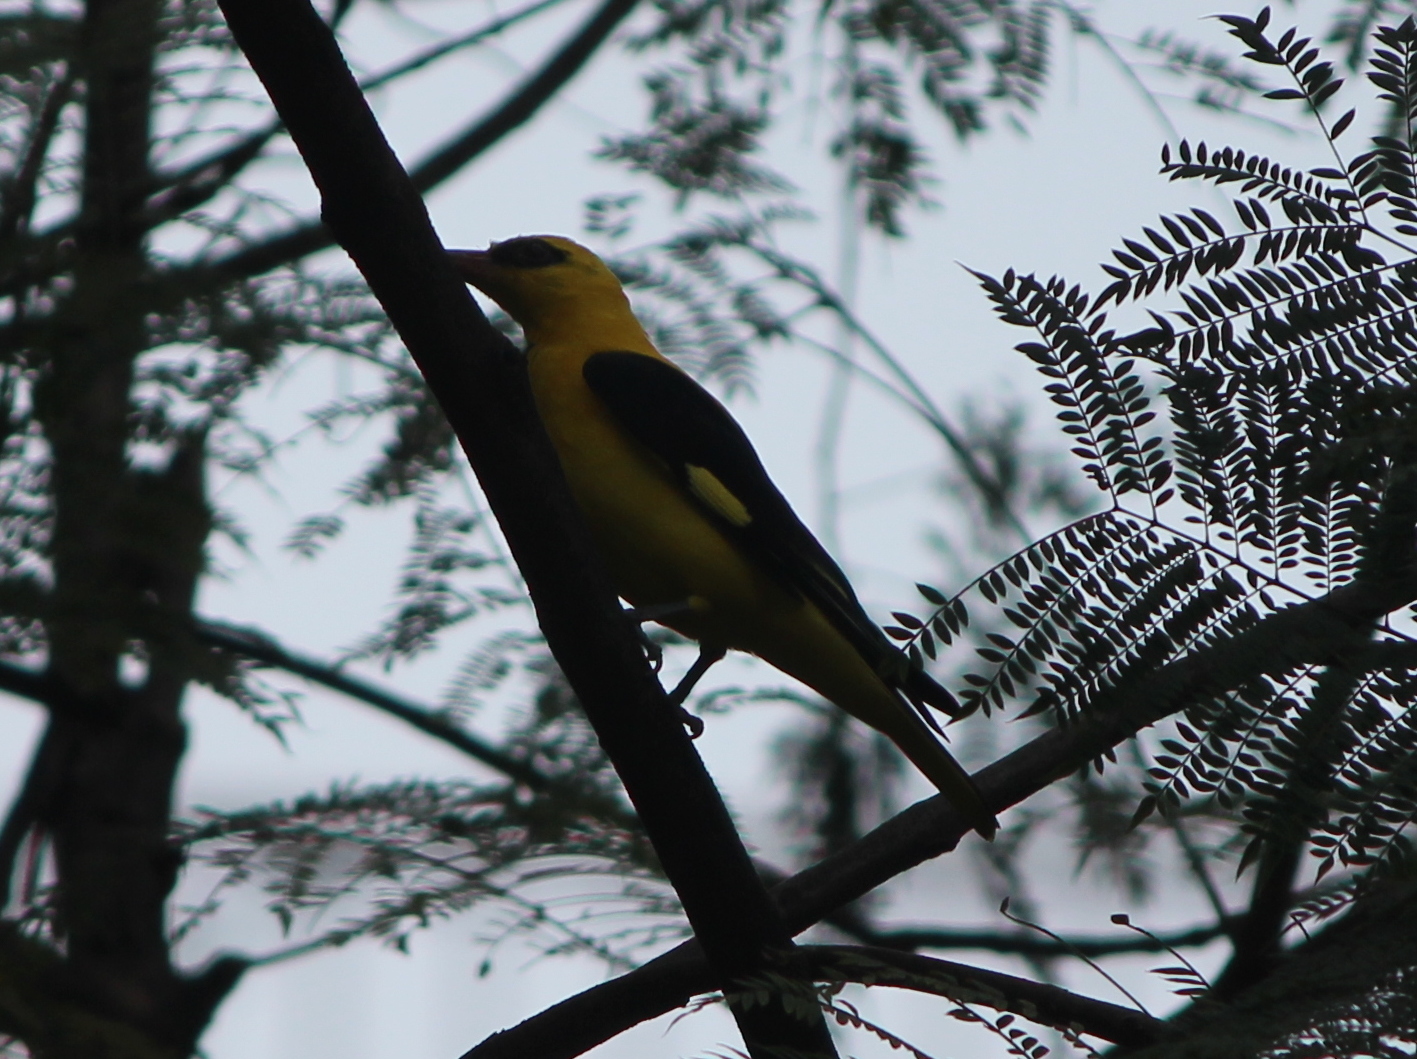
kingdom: Animalia
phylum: Chordata
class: Aves
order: Passeriformes
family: Oriolidae
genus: Oriolus
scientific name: Oriolus kundoo
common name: Indian golden oriole
